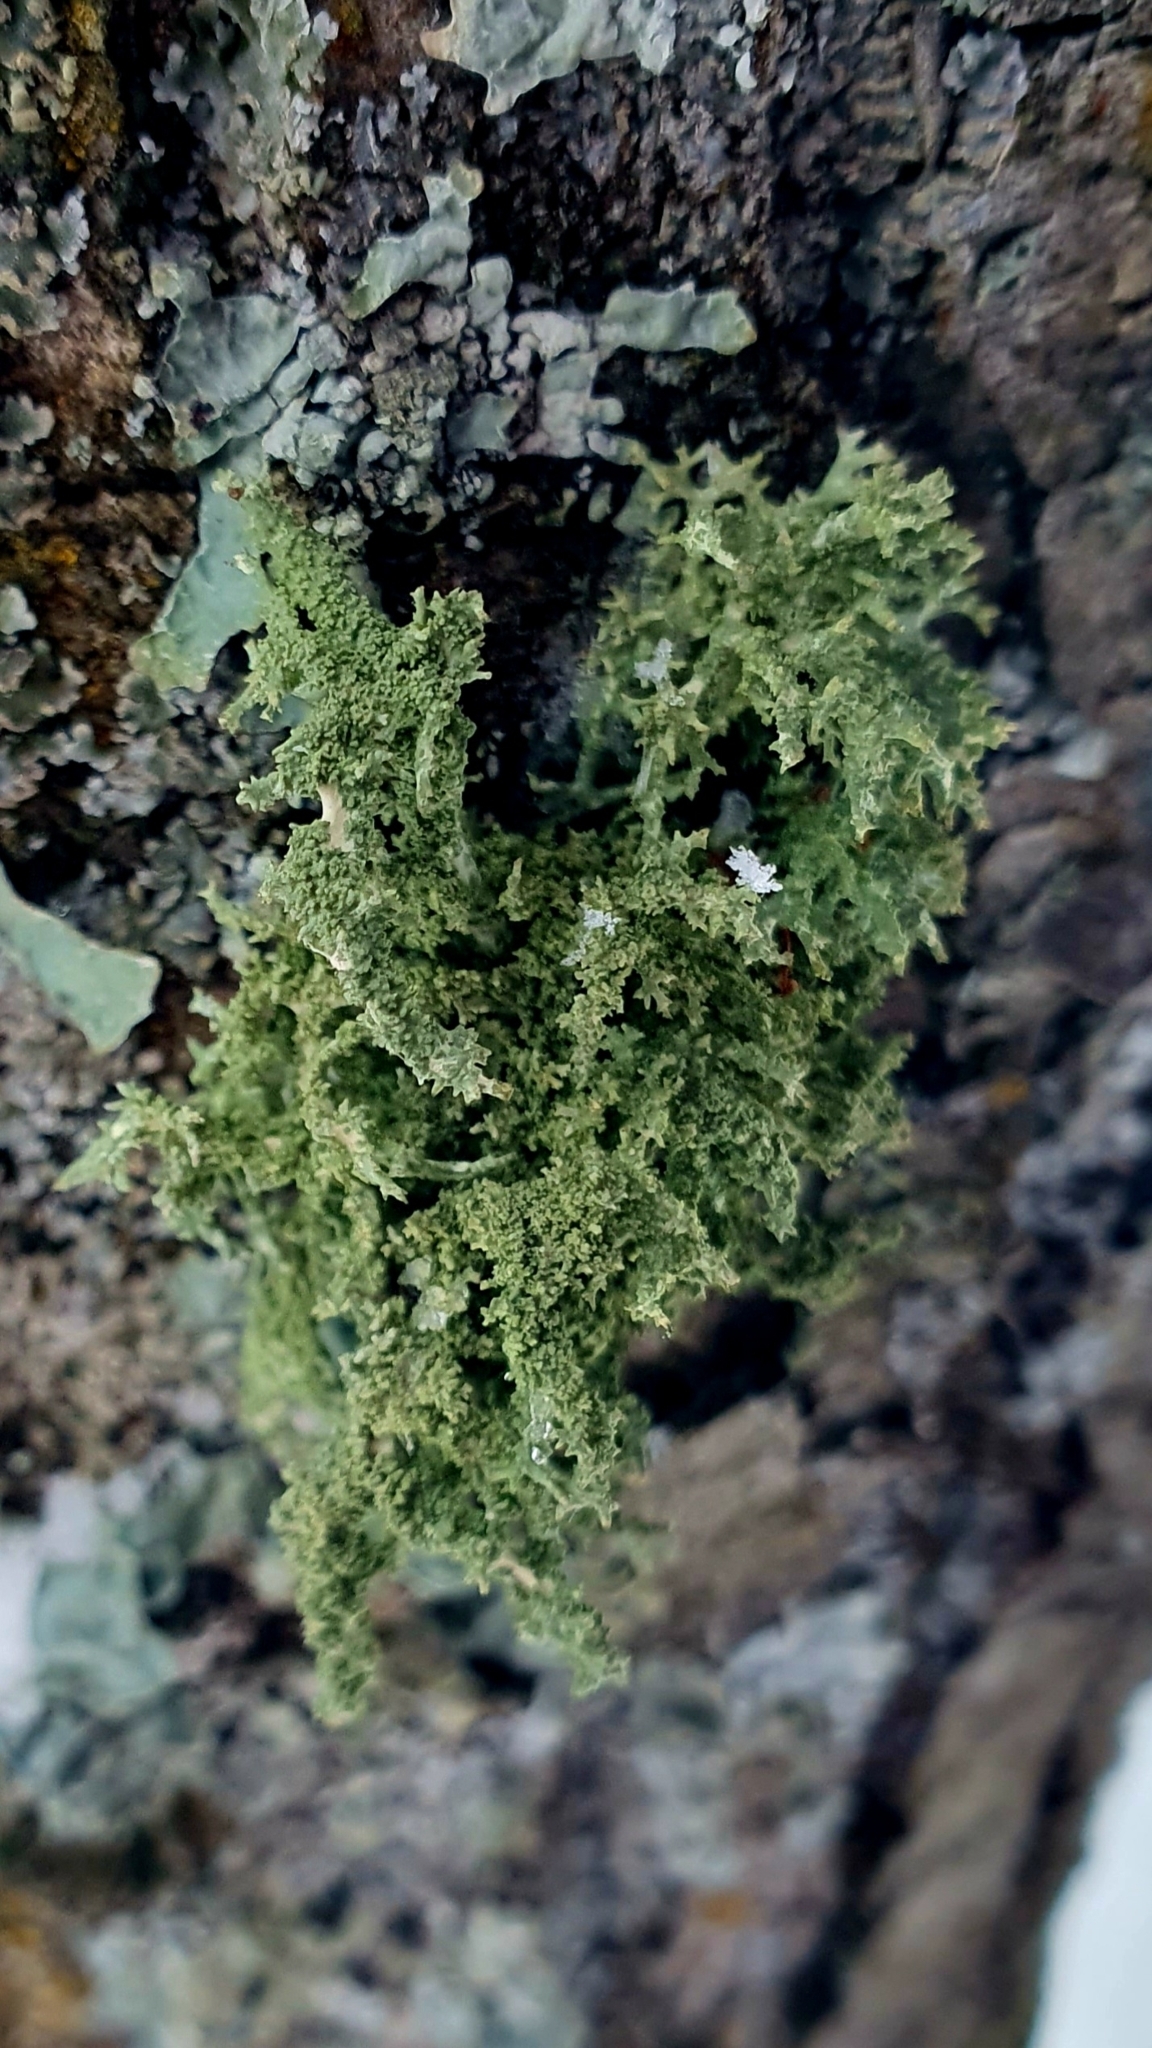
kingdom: Fungi
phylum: Ascomycota
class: Lecanoromycetes
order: Lecanorales
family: Parmeliaceae
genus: Evernia
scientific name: Evernia mesomorpha
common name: Boreal oak moss lichen
